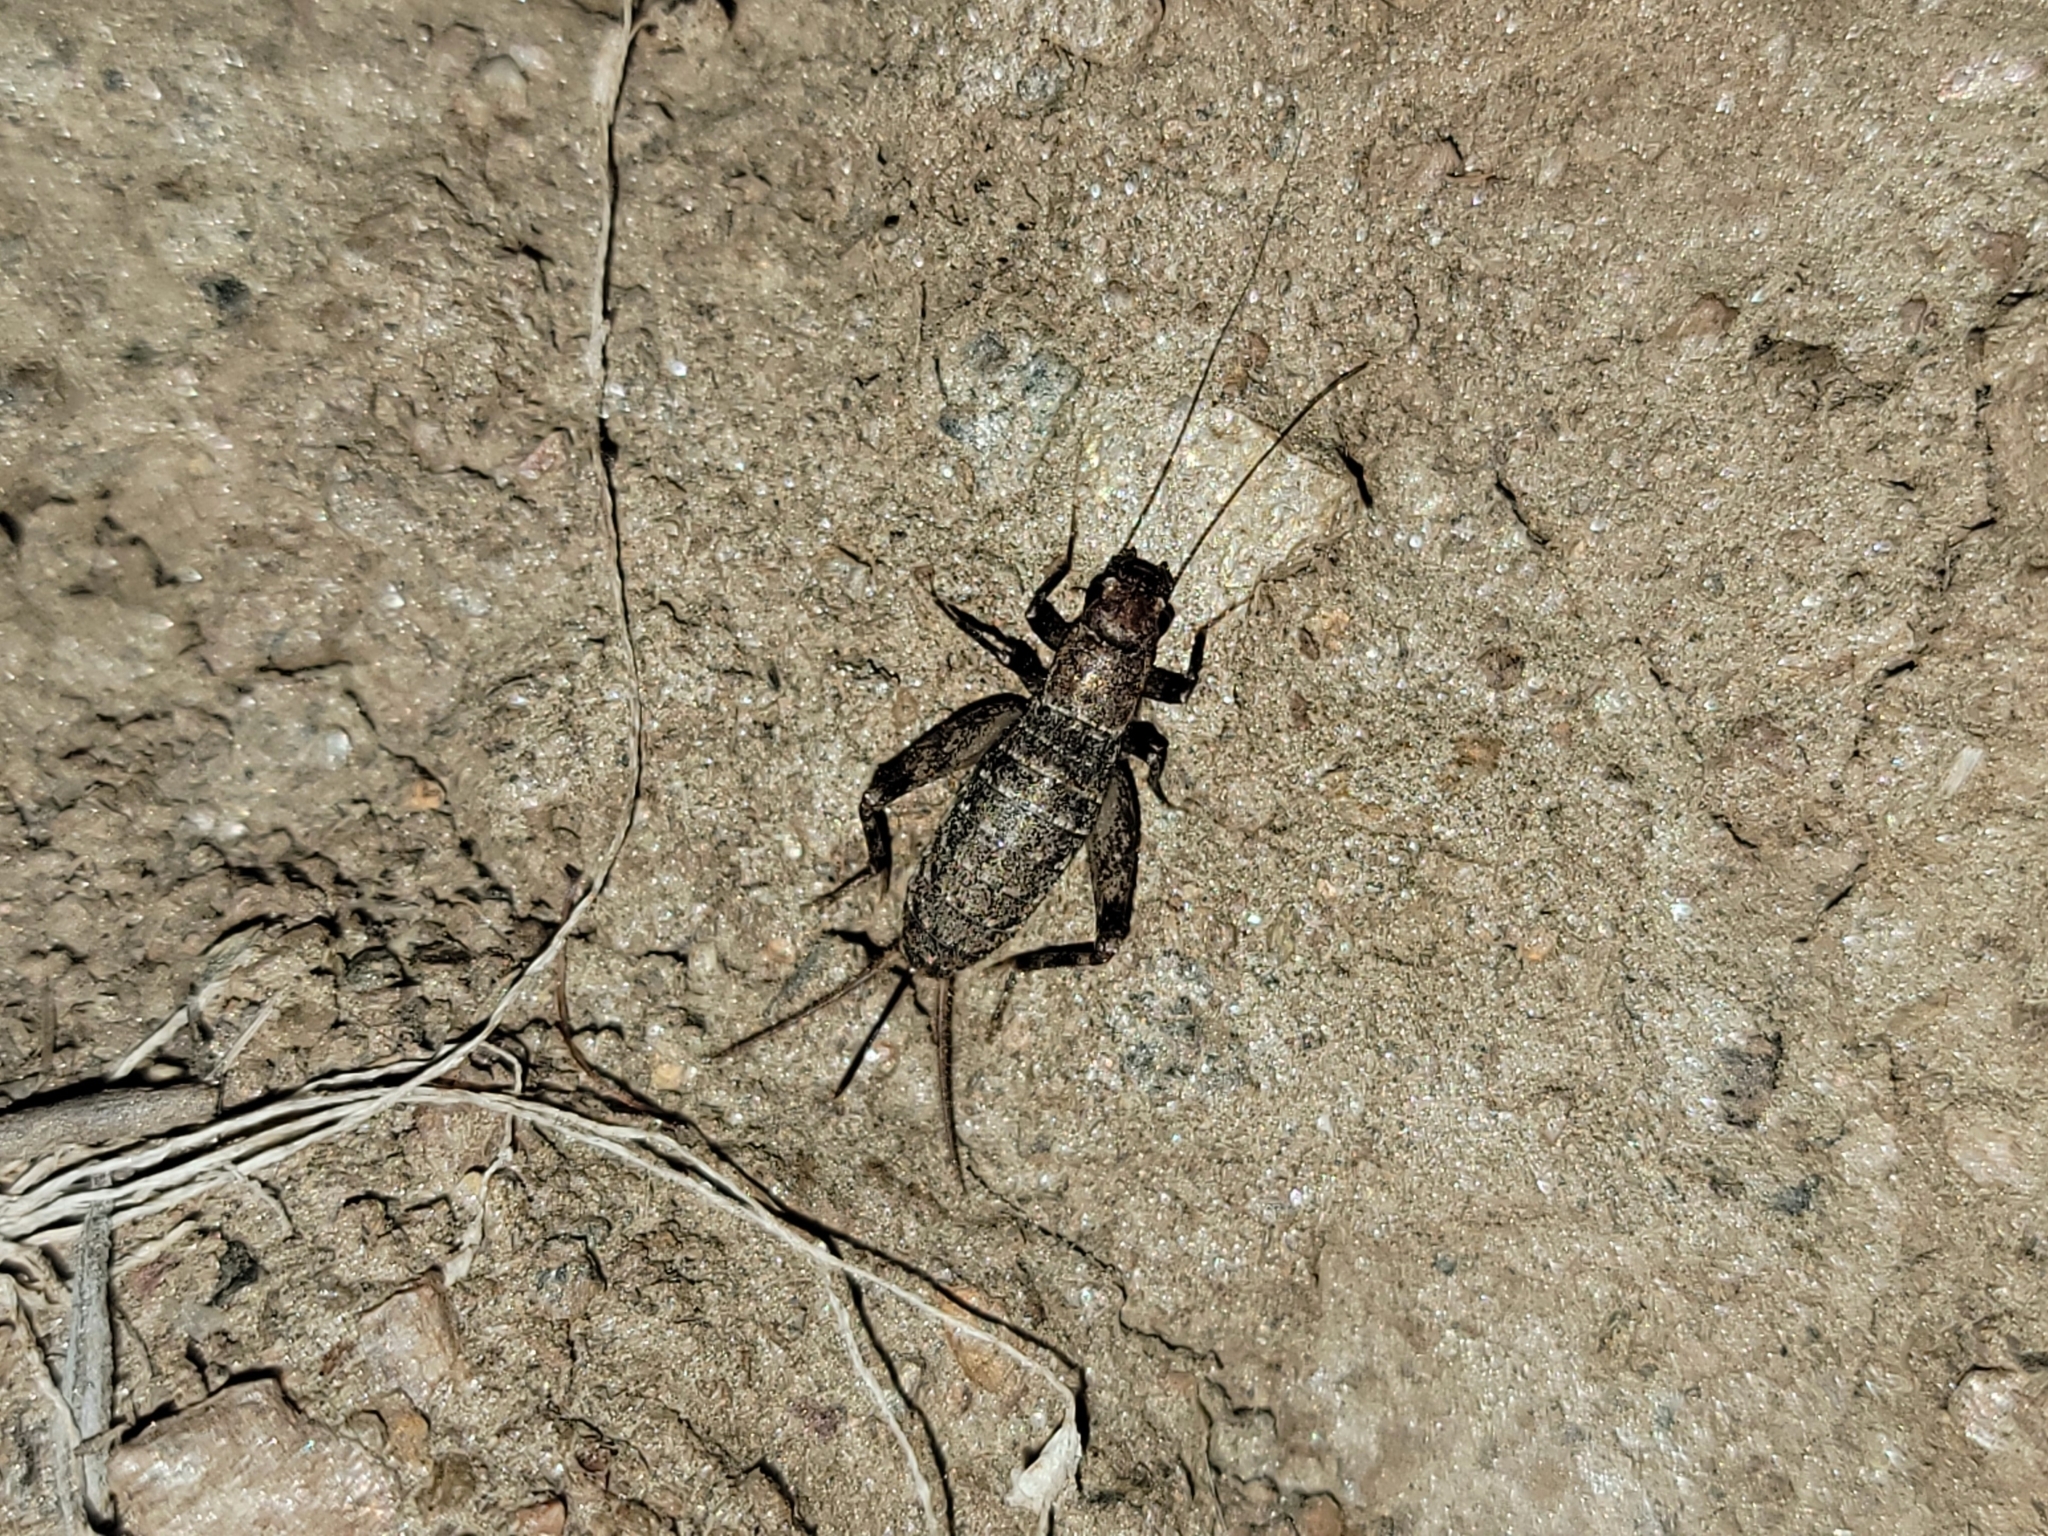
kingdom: Animalia
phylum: Arthropoda
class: Insecta
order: Orthoptera
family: Mogoplistidae
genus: Hoplosphyrum
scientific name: Hoplosphyrum boreale
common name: Long-winged scaly cricket
